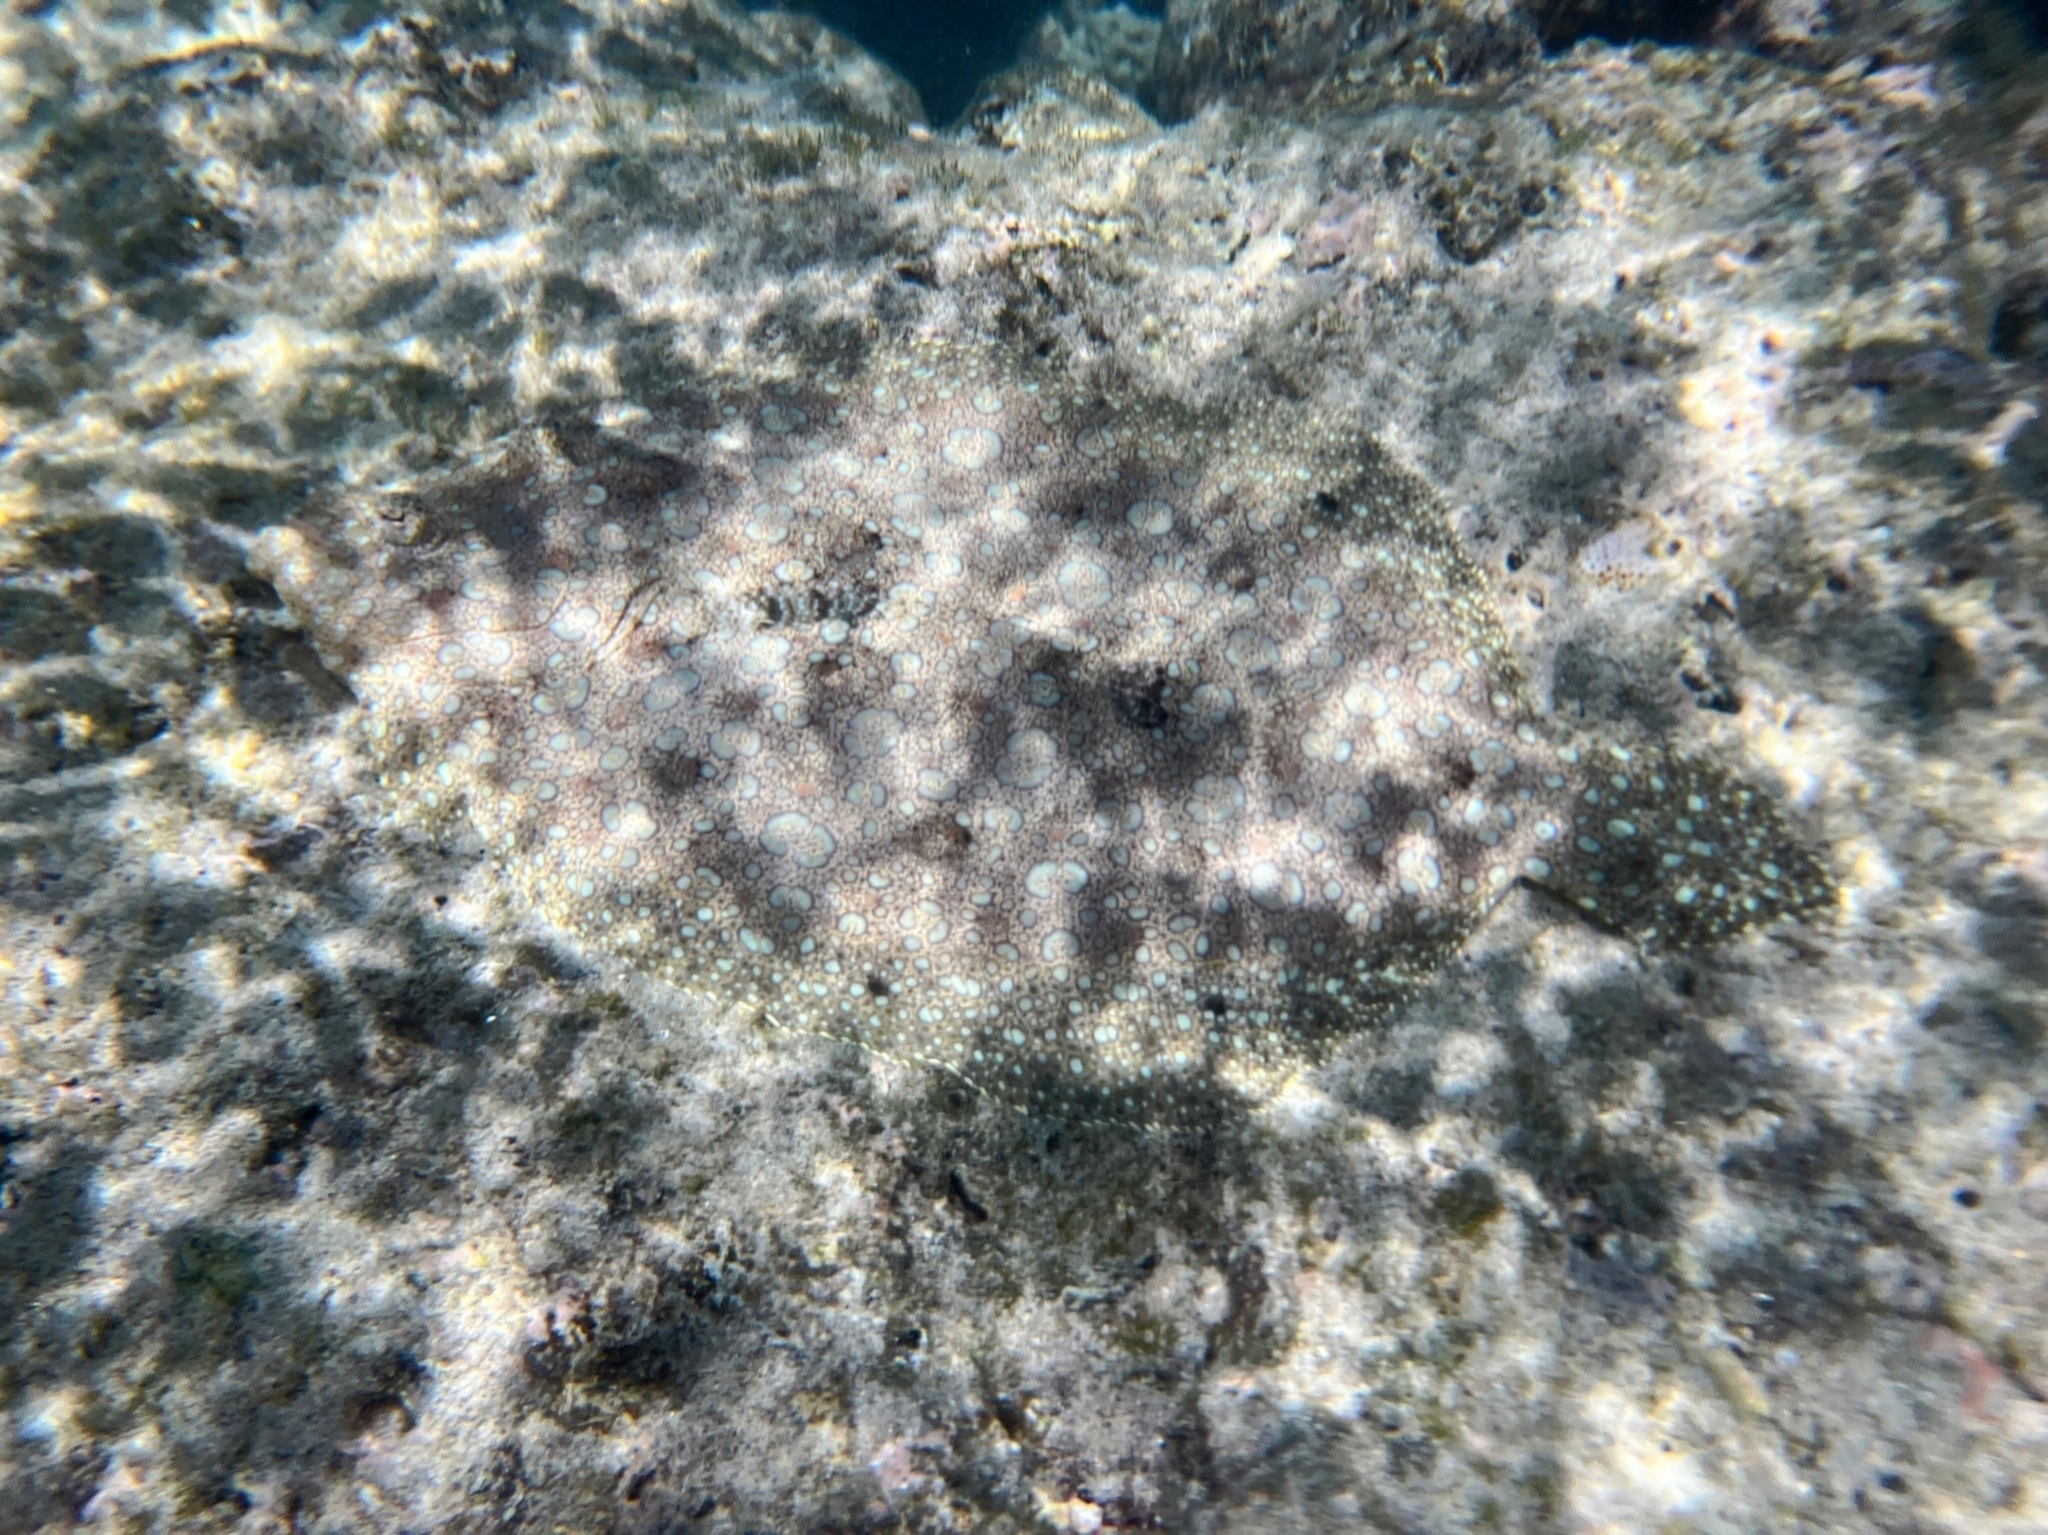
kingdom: Animalia
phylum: Chordata
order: Pleuronectiformes
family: Bothidae
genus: Bothus
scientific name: Bothus mancus
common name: Flowery flounder
